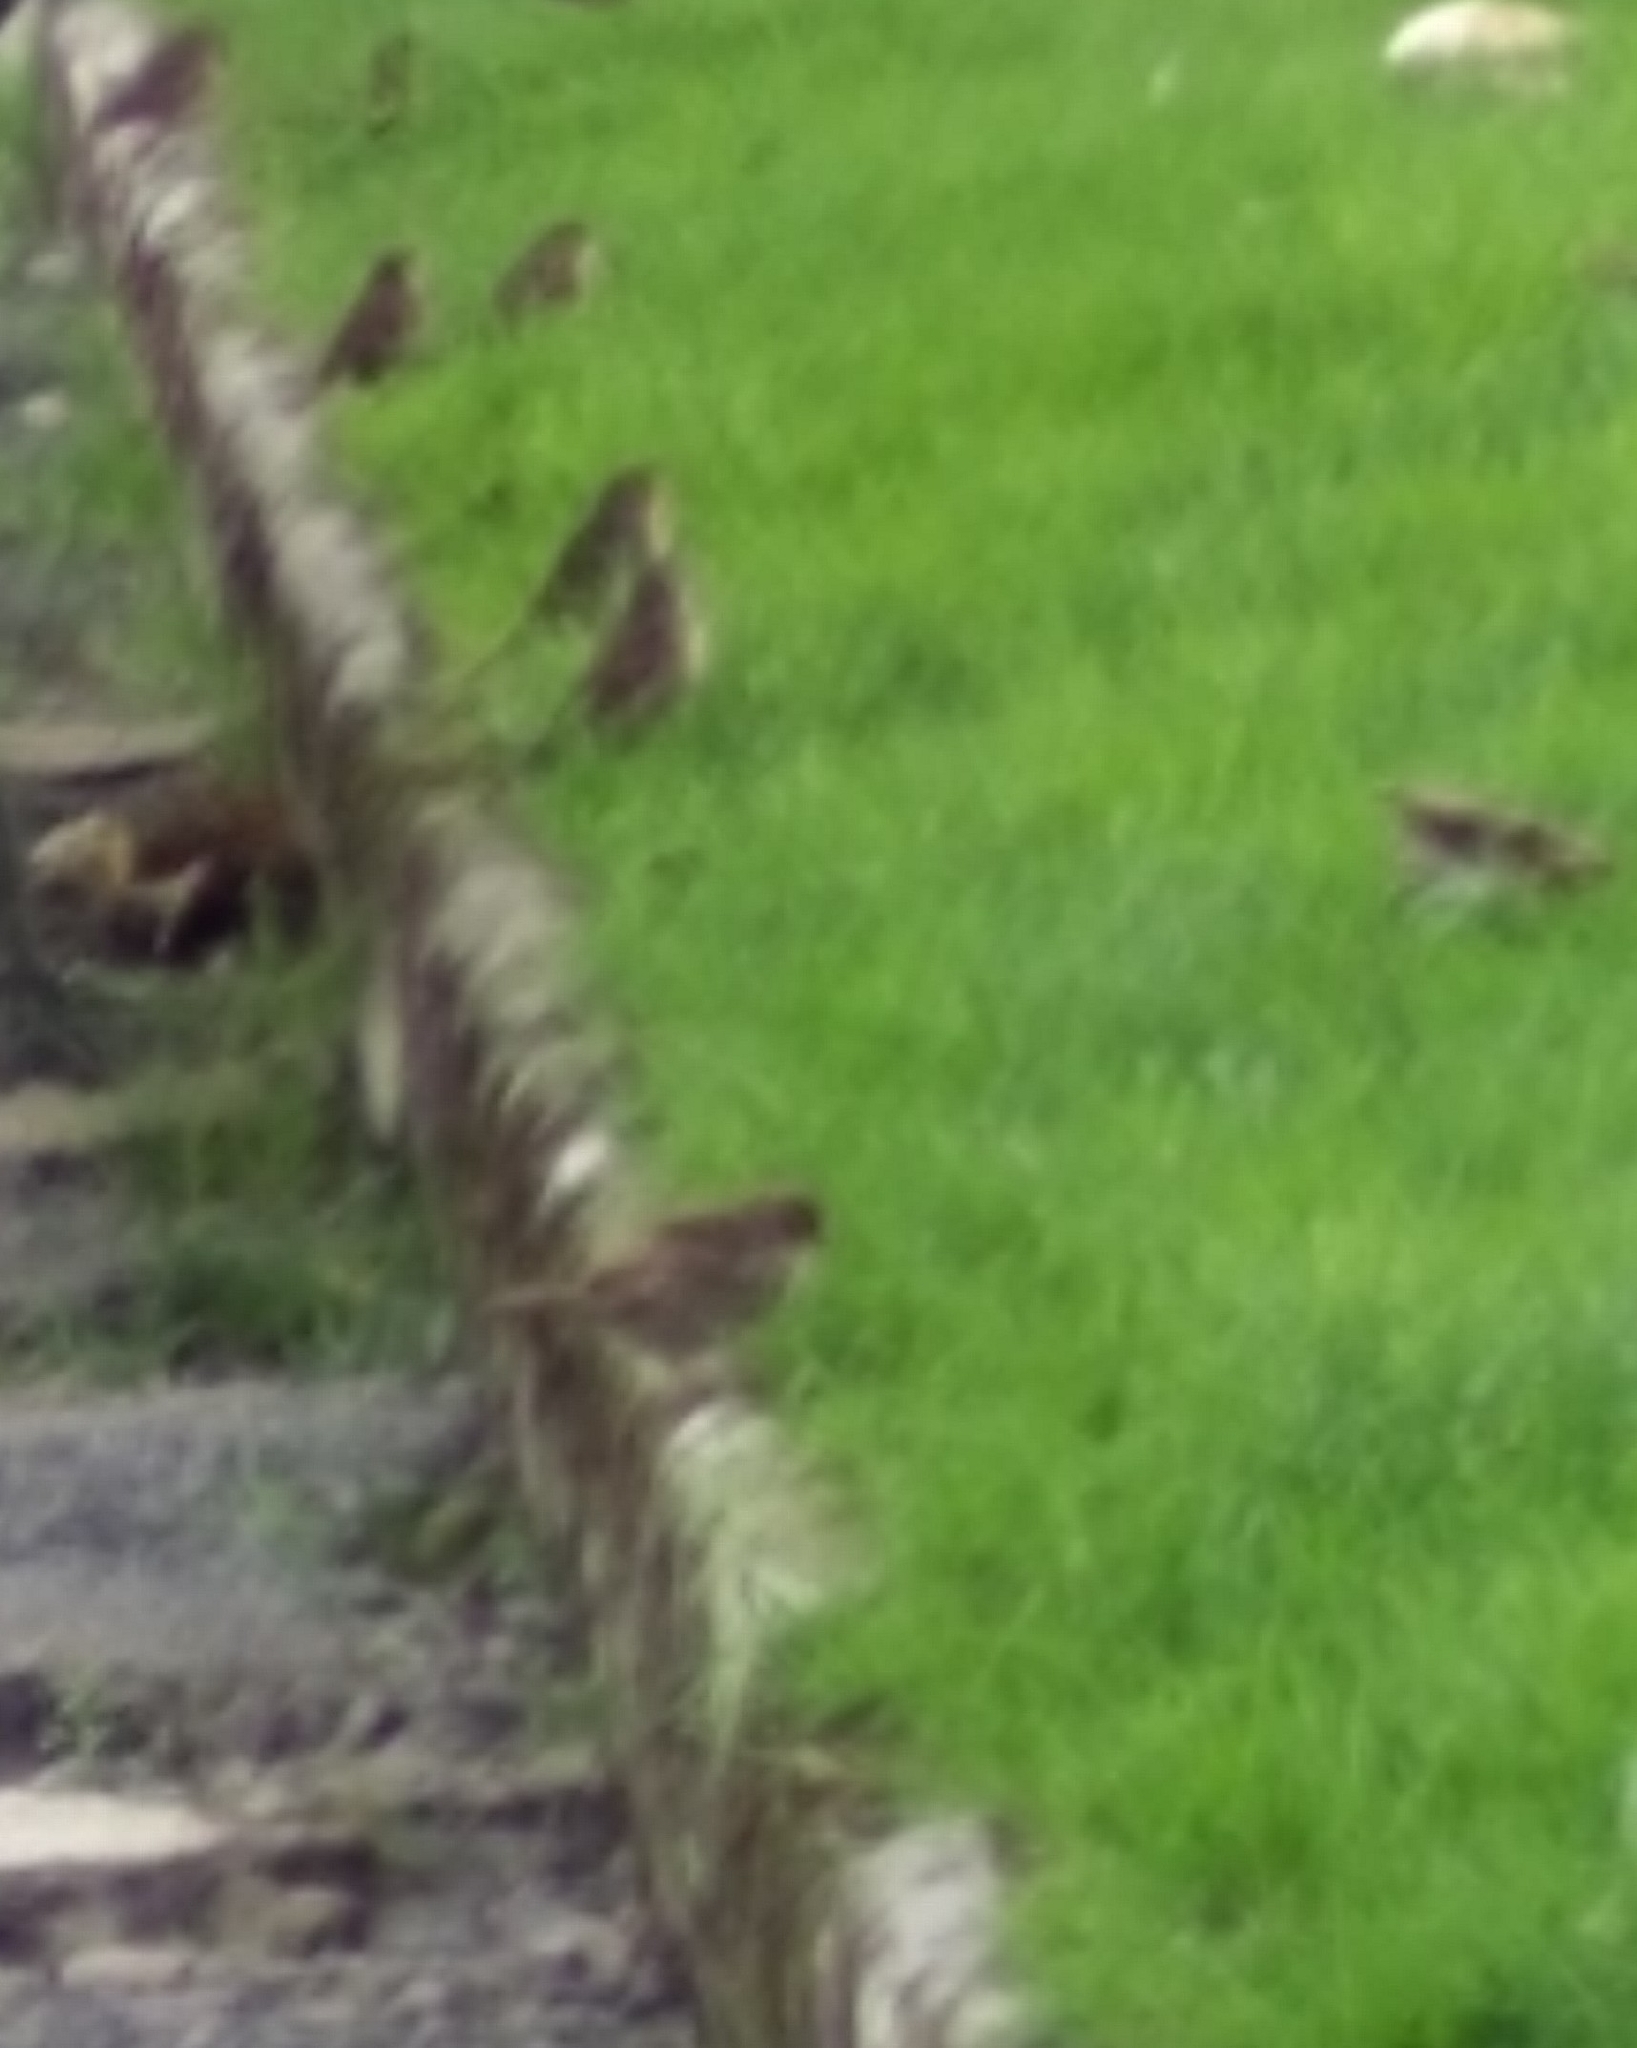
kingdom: Animalia
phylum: Chordata
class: Aves
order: Passeriformes
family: Passeridae
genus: Passer
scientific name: Passer domesticus
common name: House sparrow
